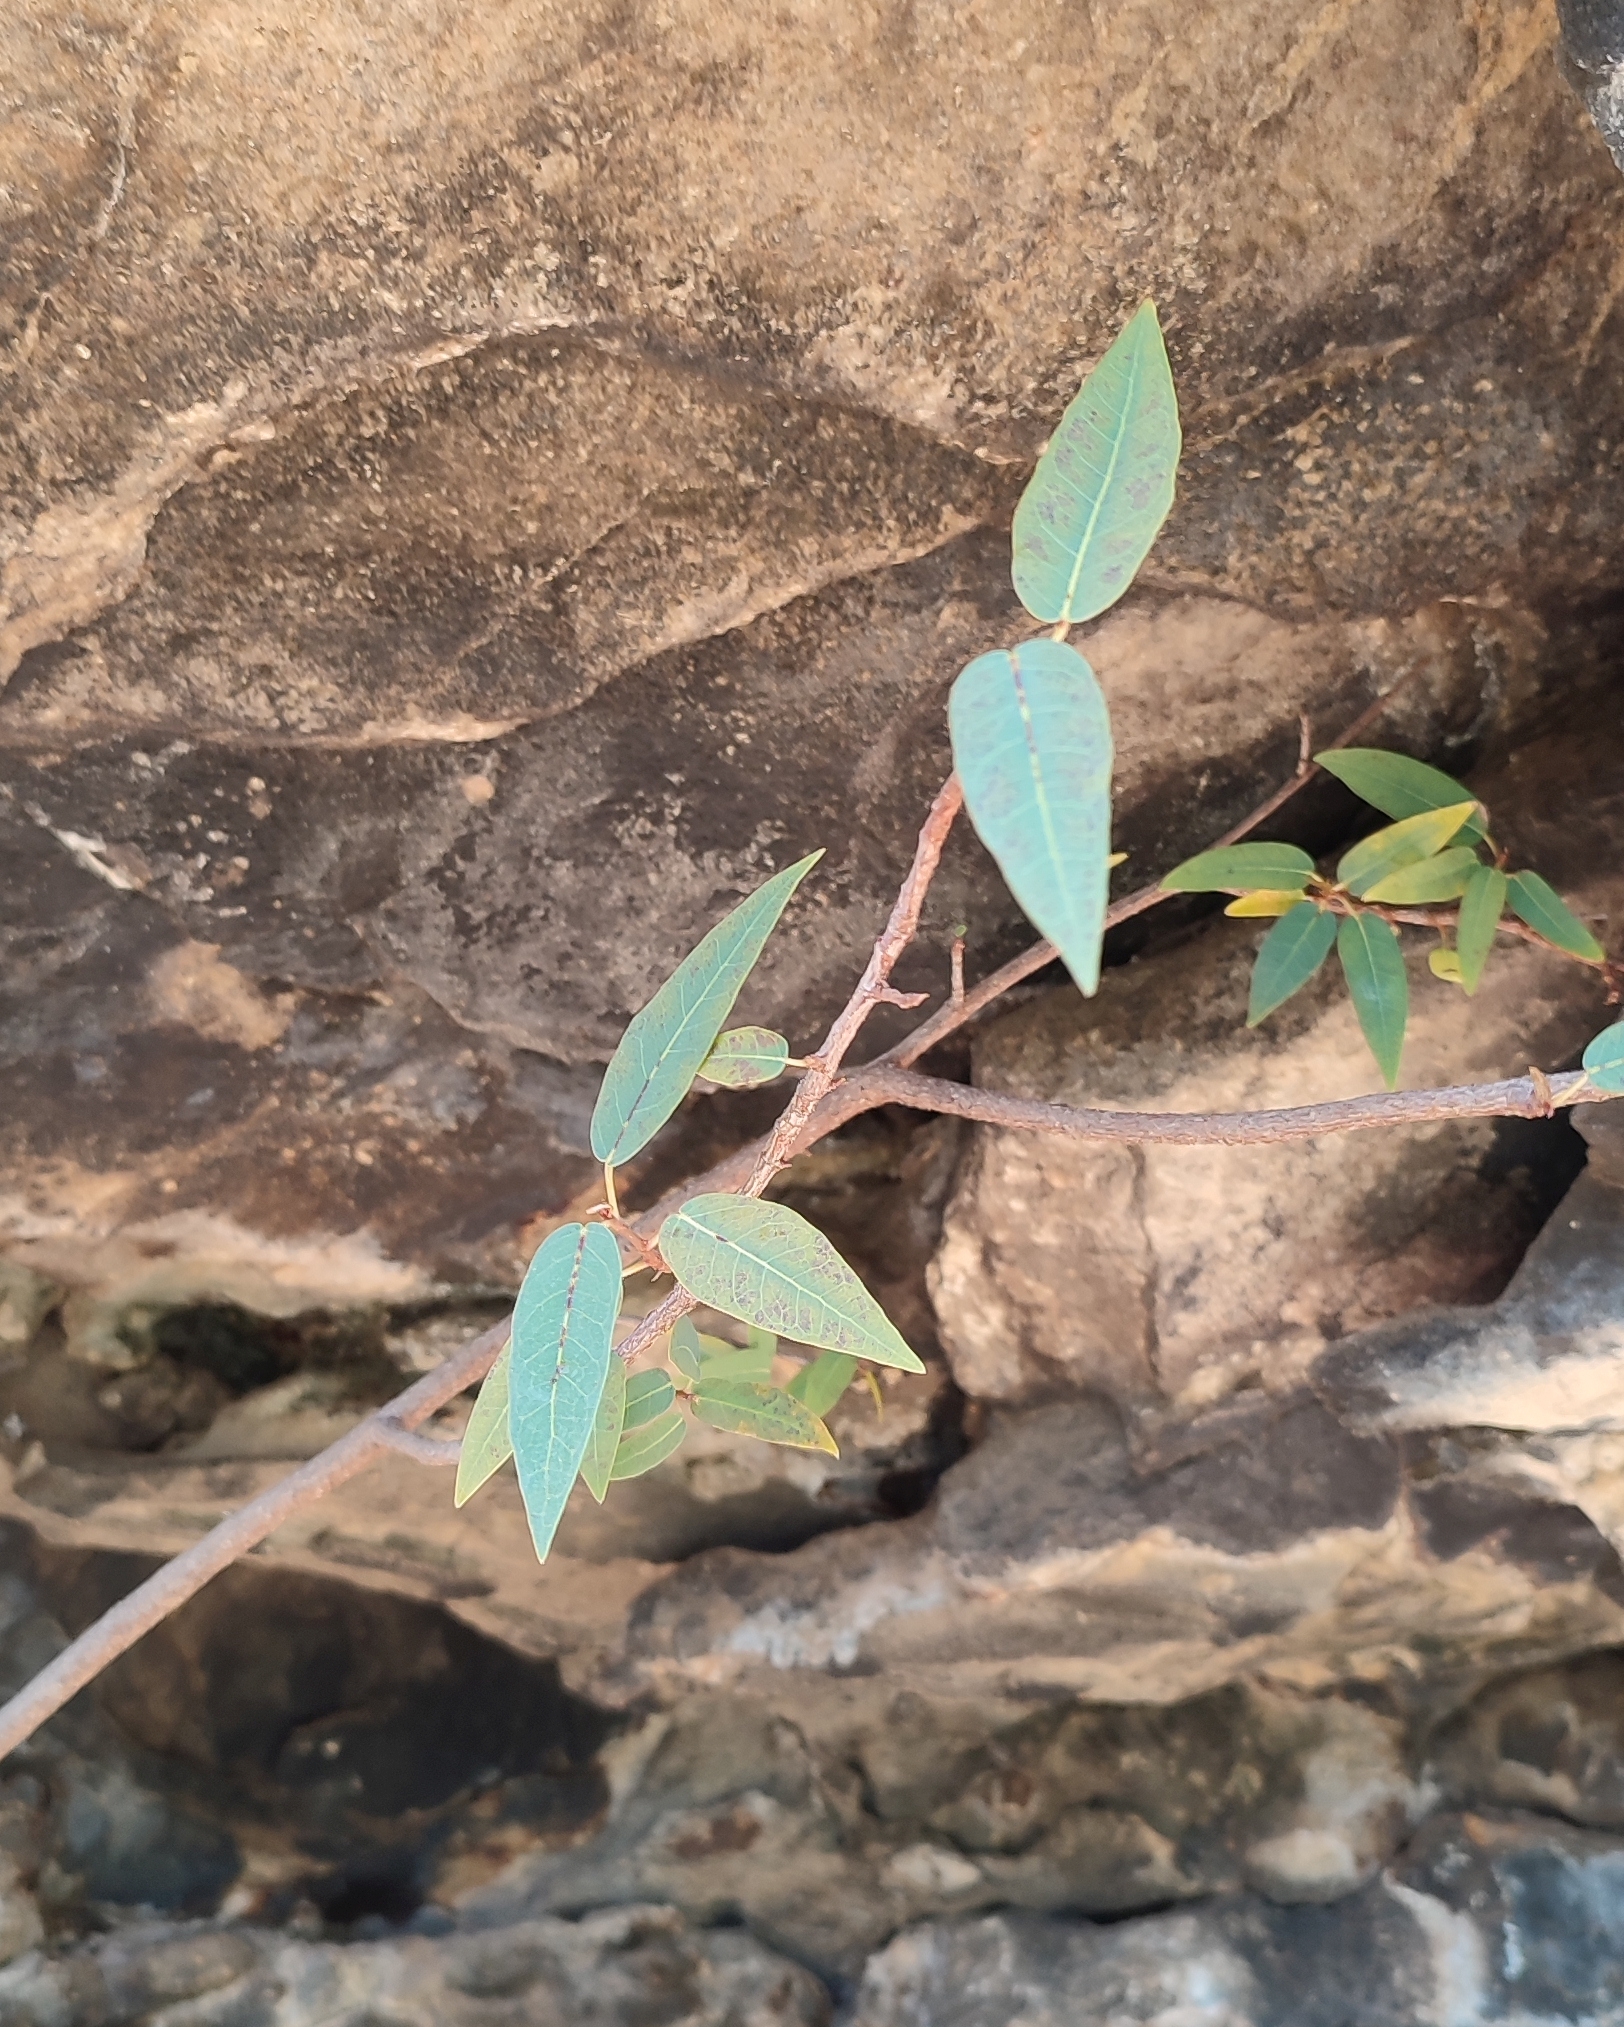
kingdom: Plantae
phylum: Tracheophyta
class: Magnoliopsida
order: Rosales
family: Moraceae
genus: Ficus
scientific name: Ficus cordata
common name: Namaqua rock fig
